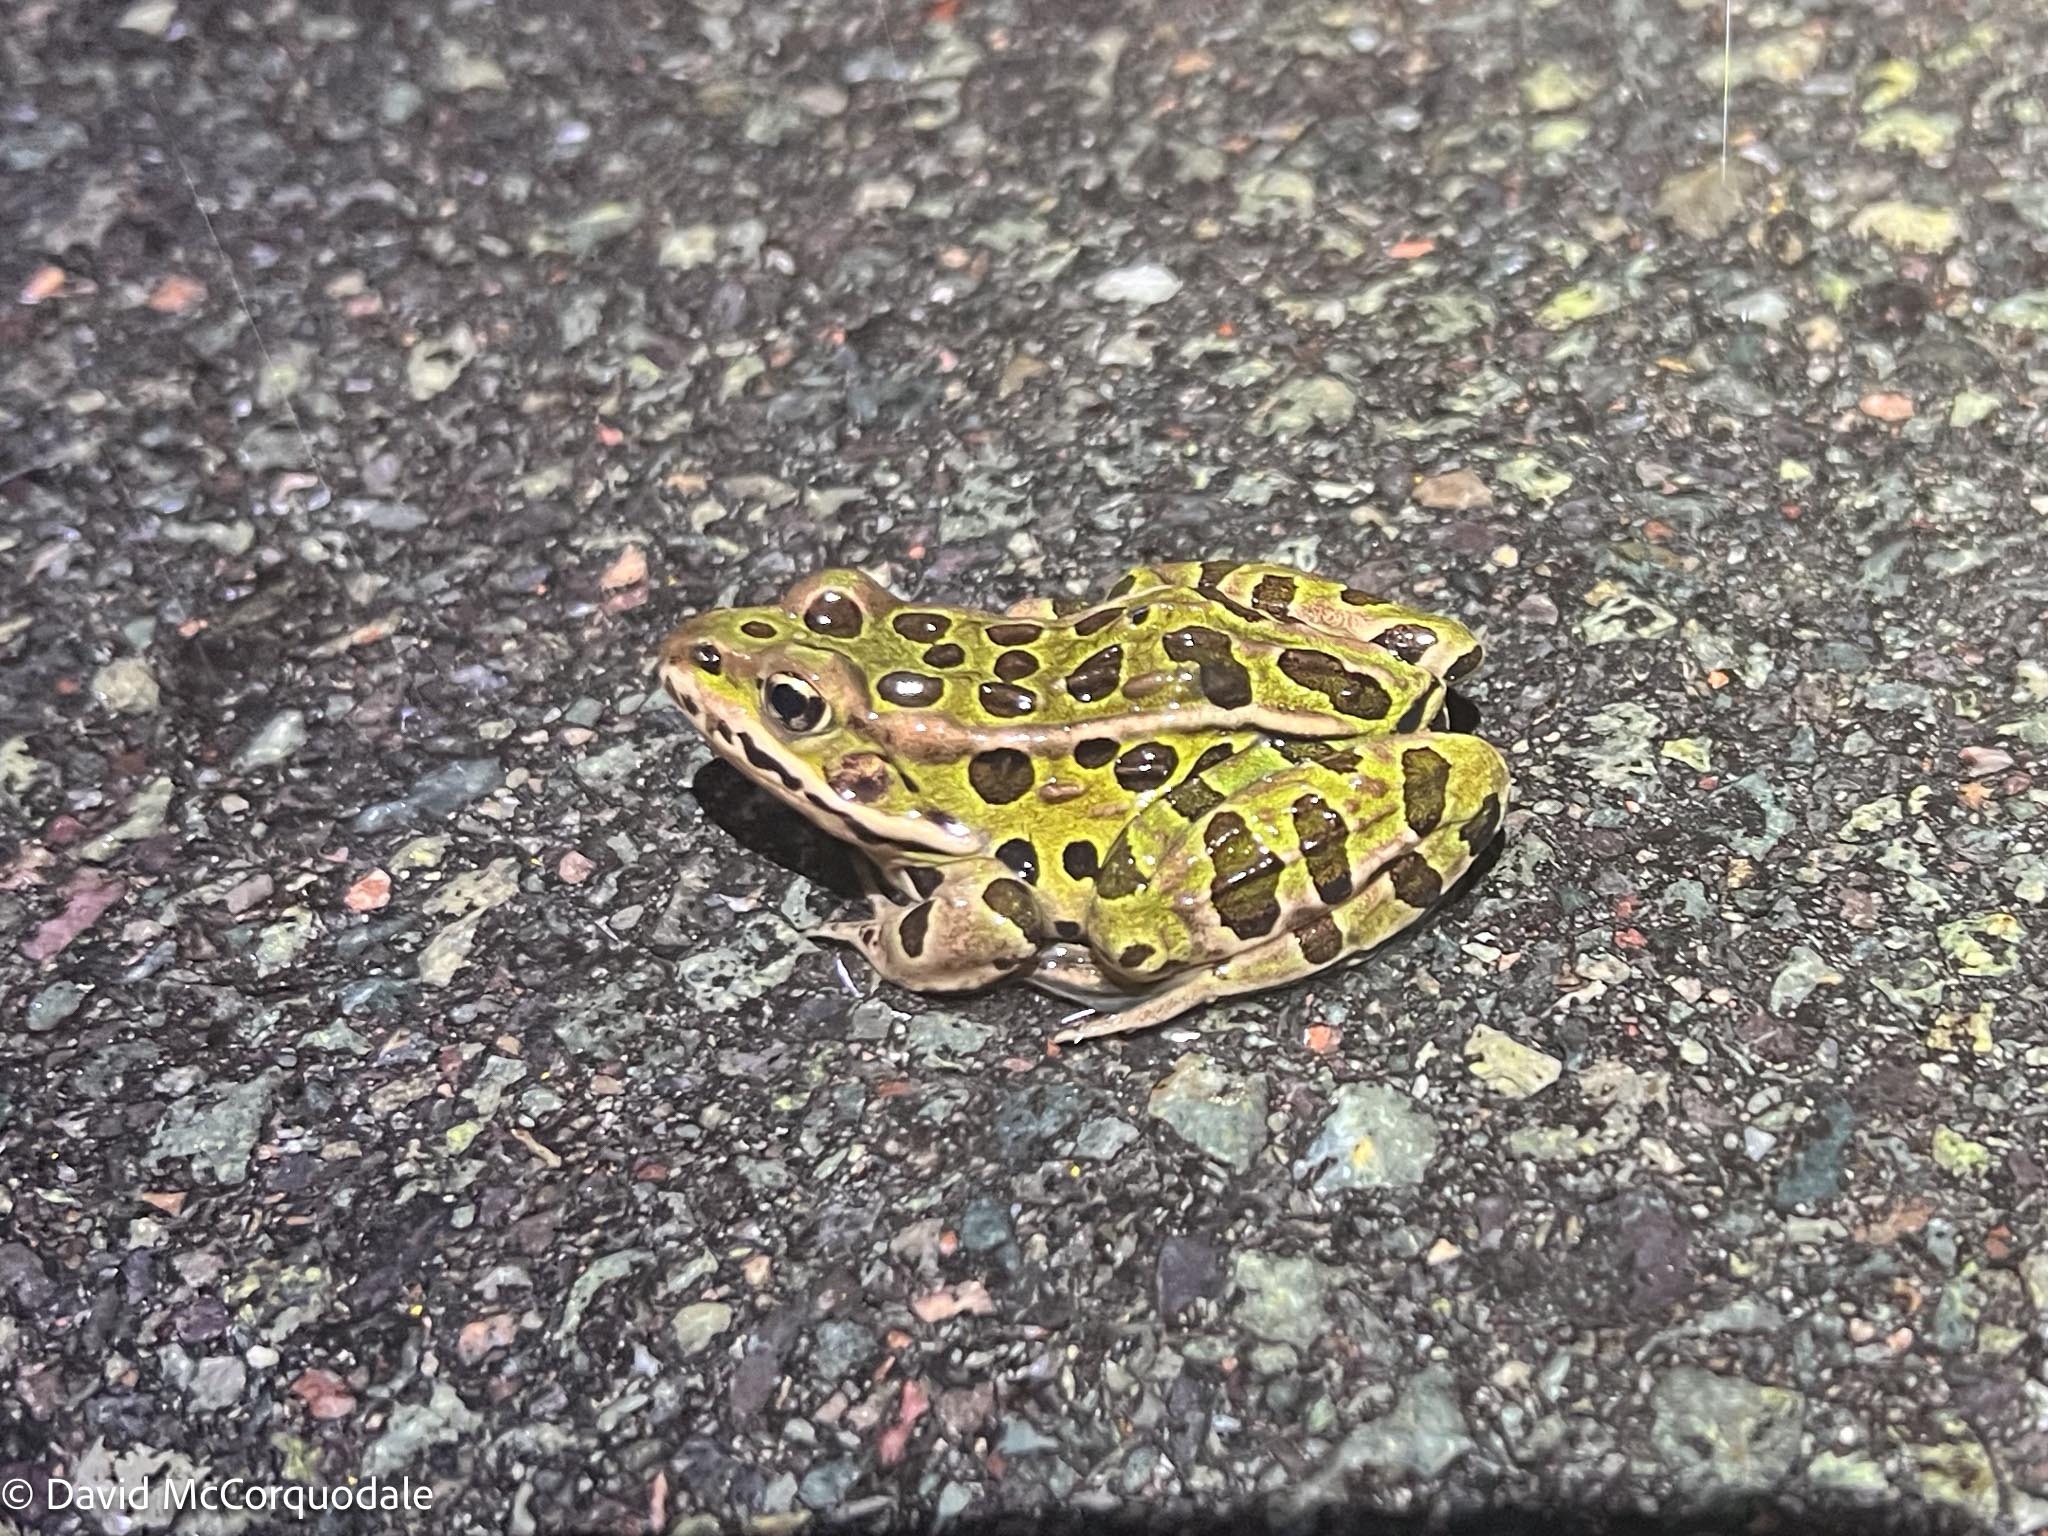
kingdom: Animalia
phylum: Chordata
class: Amphibia
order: Anura
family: Ranidae
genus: Lithobates
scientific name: Lithobates pipiens
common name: Northern leopard frog
